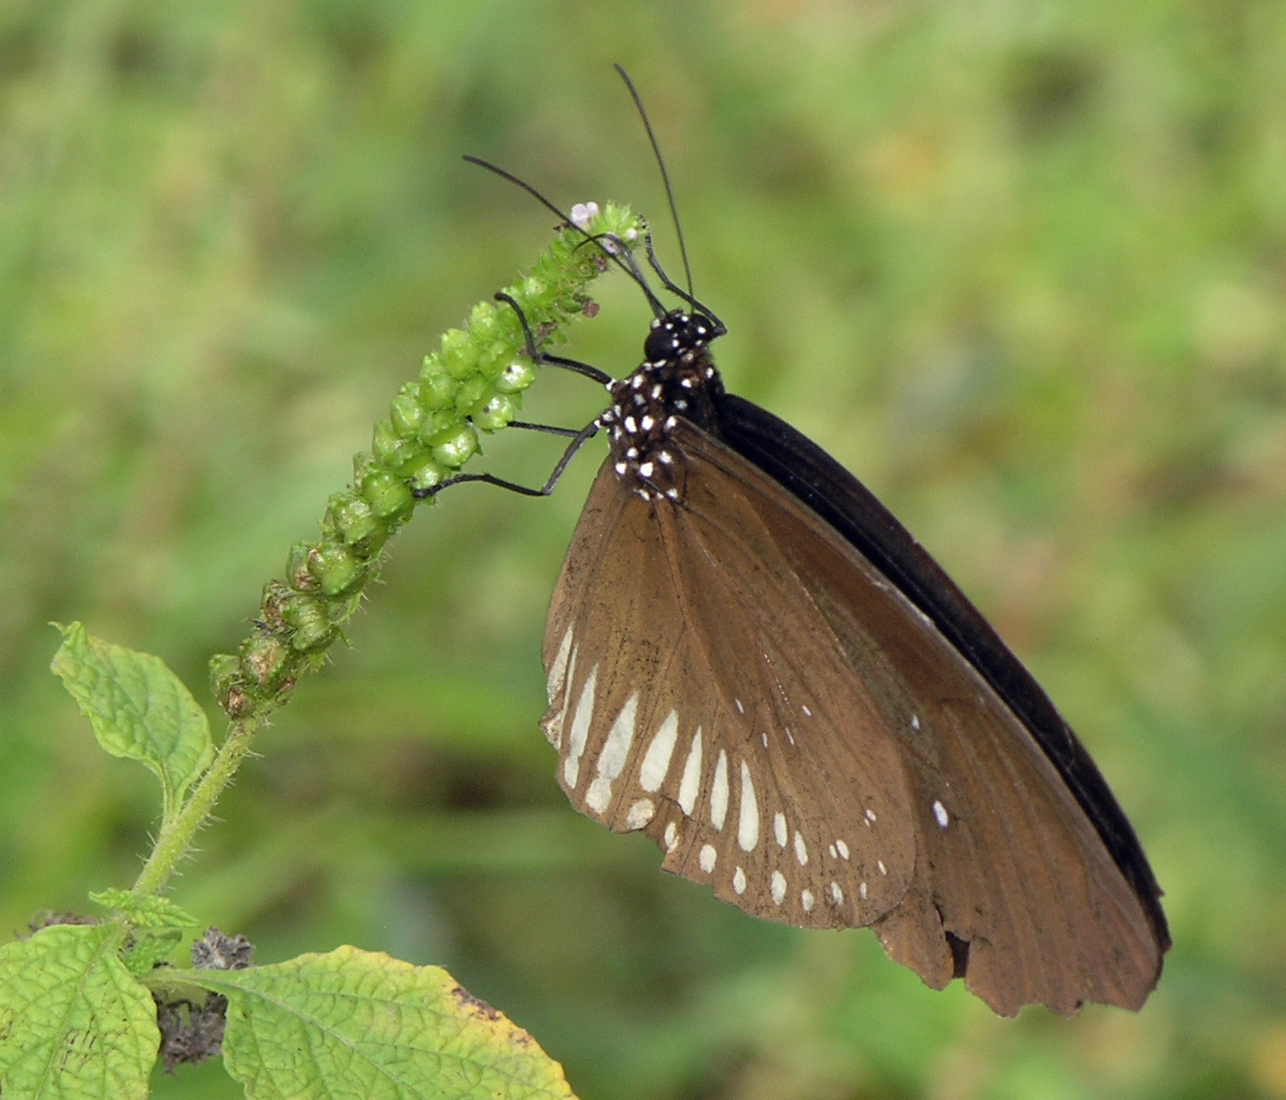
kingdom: Animalia
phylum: Arthropoda
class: Insecta
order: Lepidoptera
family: Nymphalidae
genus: Euploea
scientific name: Euploea doubledayi
